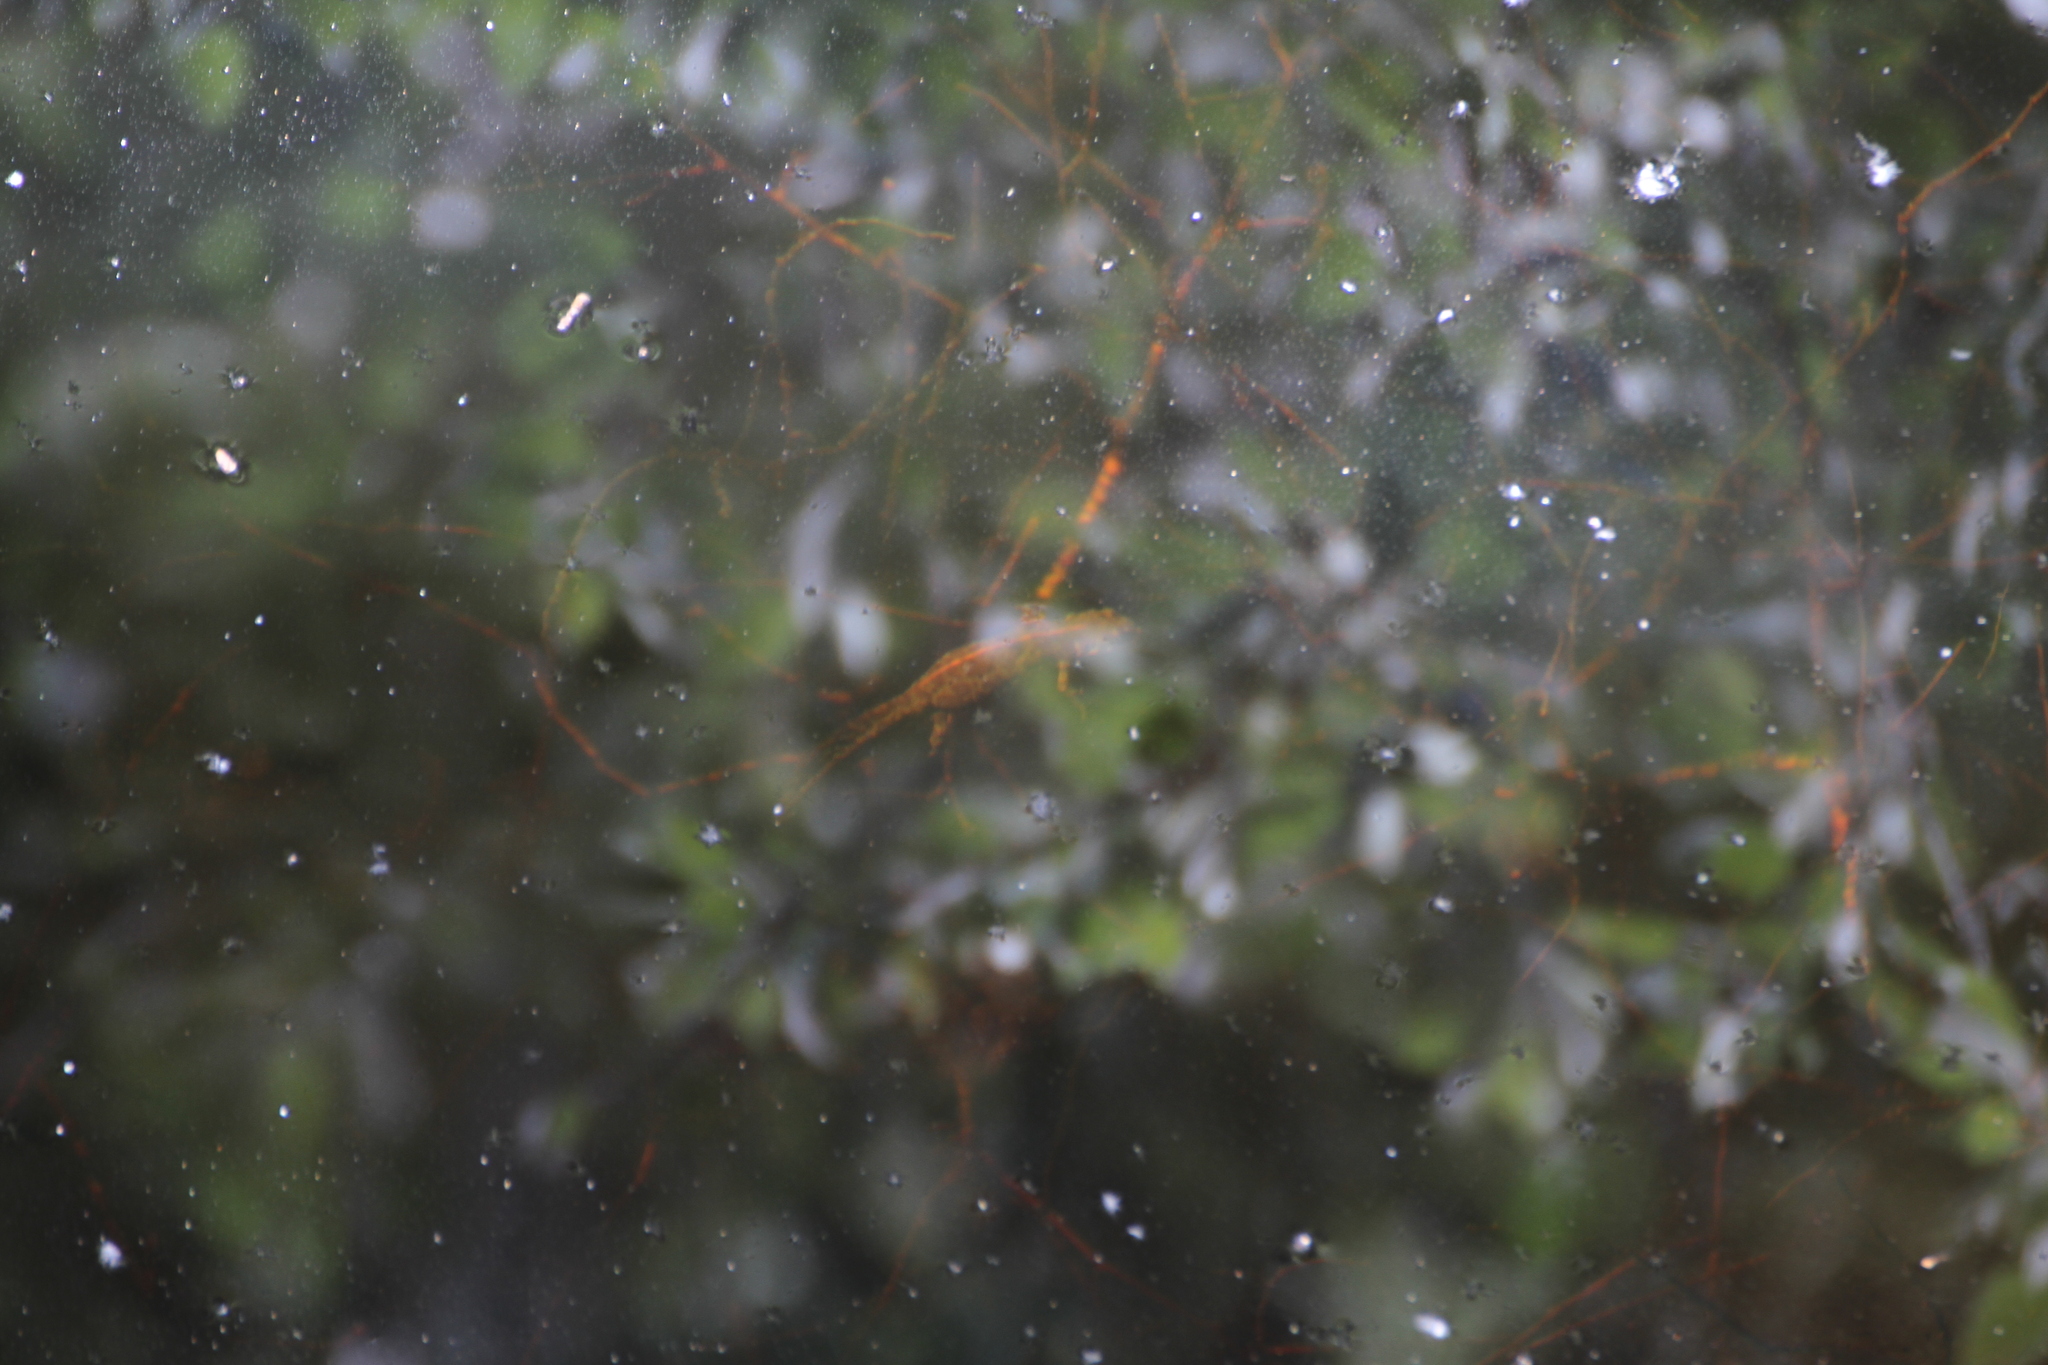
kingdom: Animalia
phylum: Chordata
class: Amphibia
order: Caudata
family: Salamandridae
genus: Triturus
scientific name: Triturus marmoratus
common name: Marbled newt
